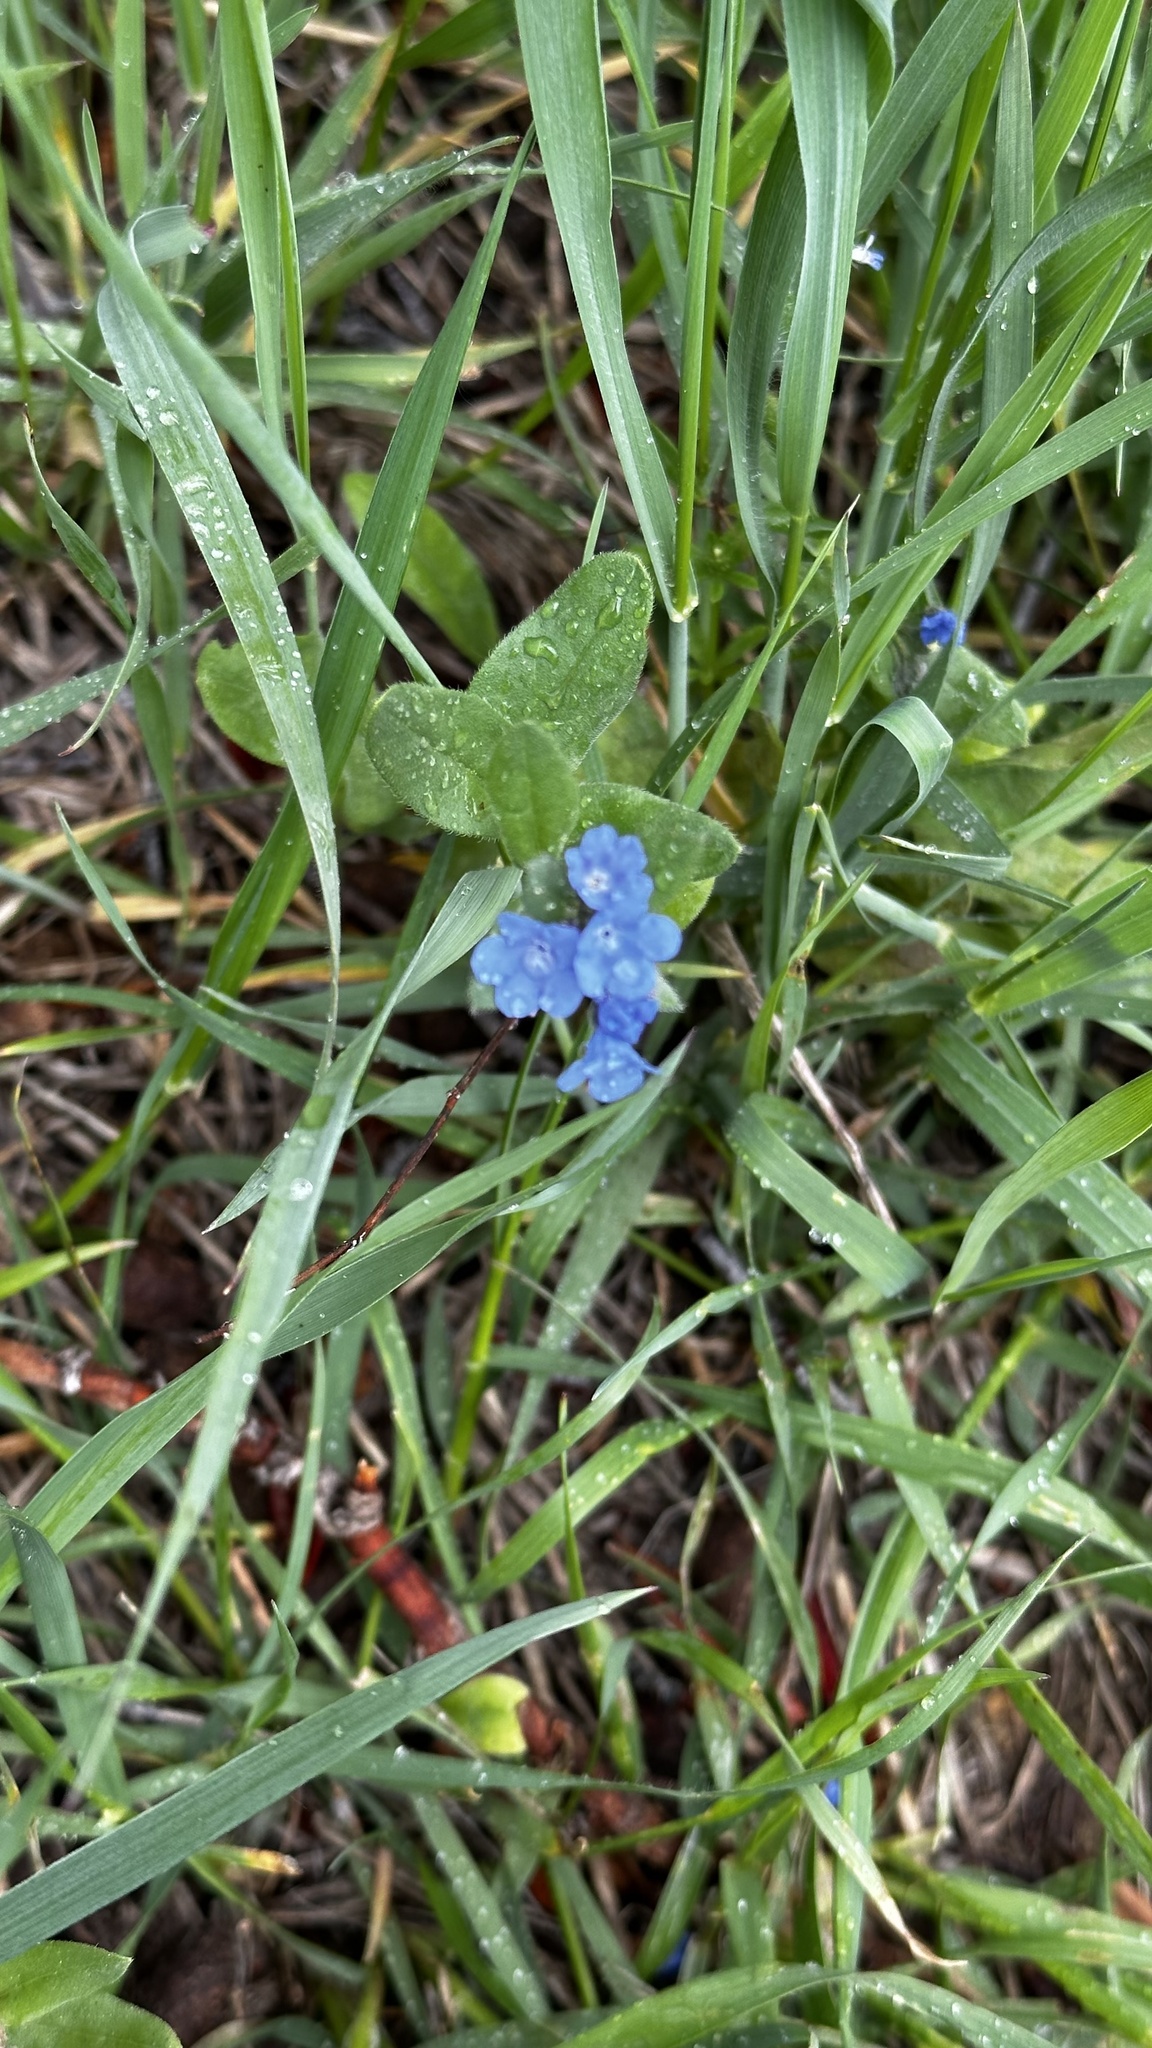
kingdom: Plantae
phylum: Tracheophyta
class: Magnoliopsida
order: Boraginales
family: Boraginaceae
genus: Mertensia
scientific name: Mertensia brevistyla
